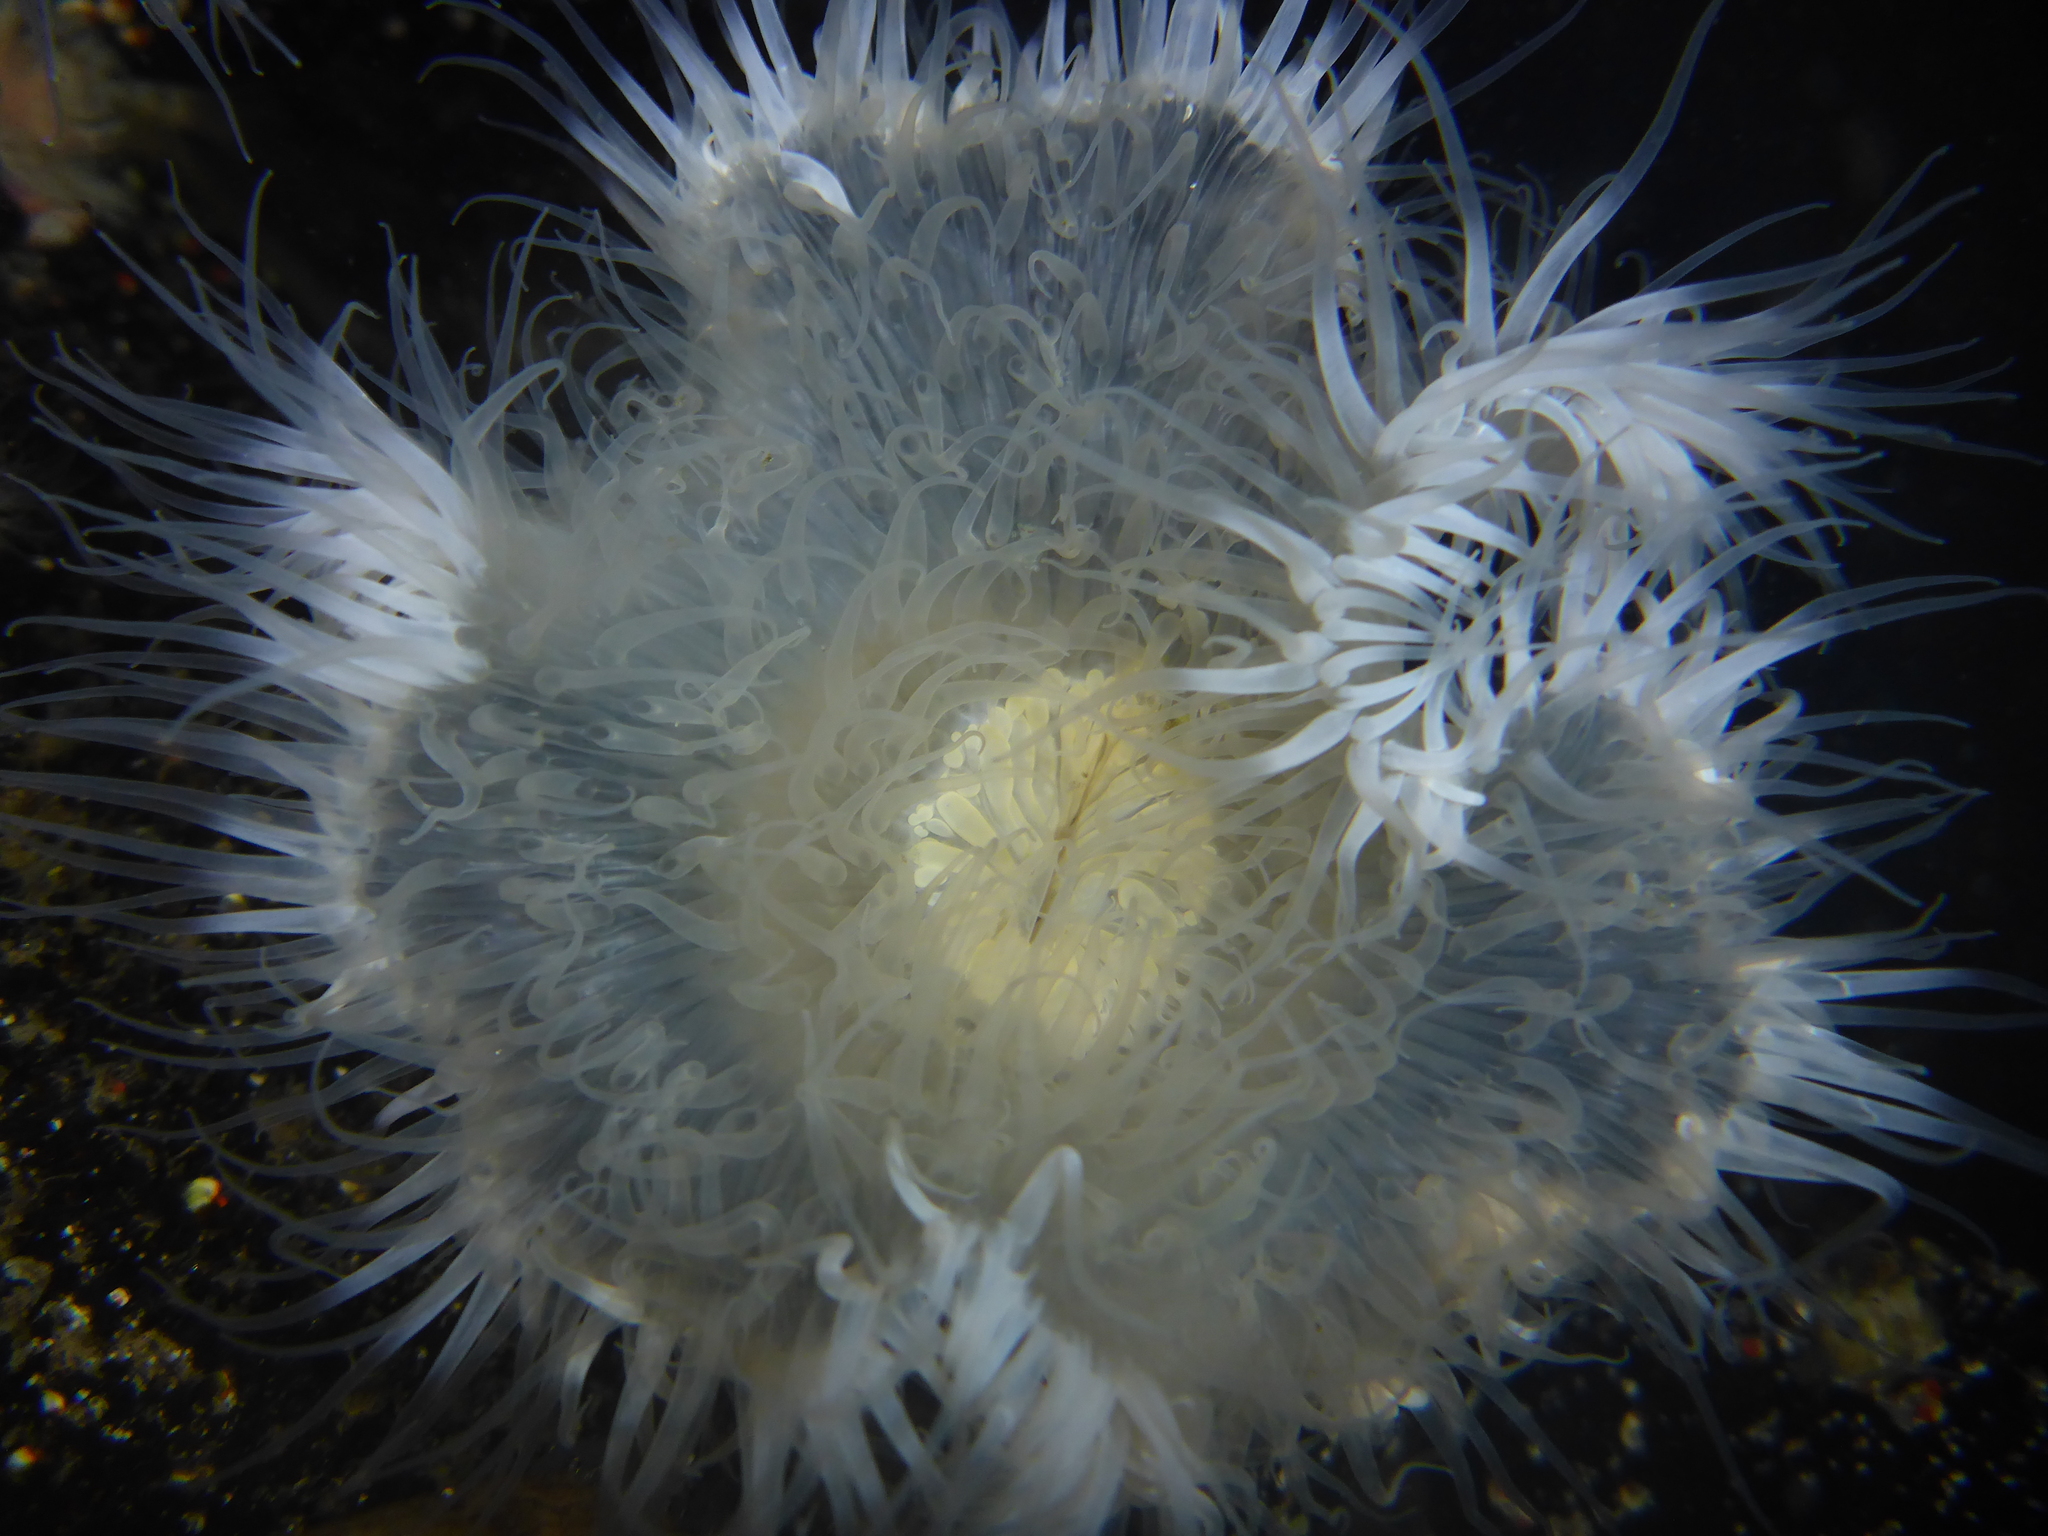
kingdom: Animalia
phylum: Cnidaria
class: Anthozoa
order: Actiniaria
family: Metridiidae
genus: Metridium
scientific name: Metridium senile
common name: Clonal plumose anemone
